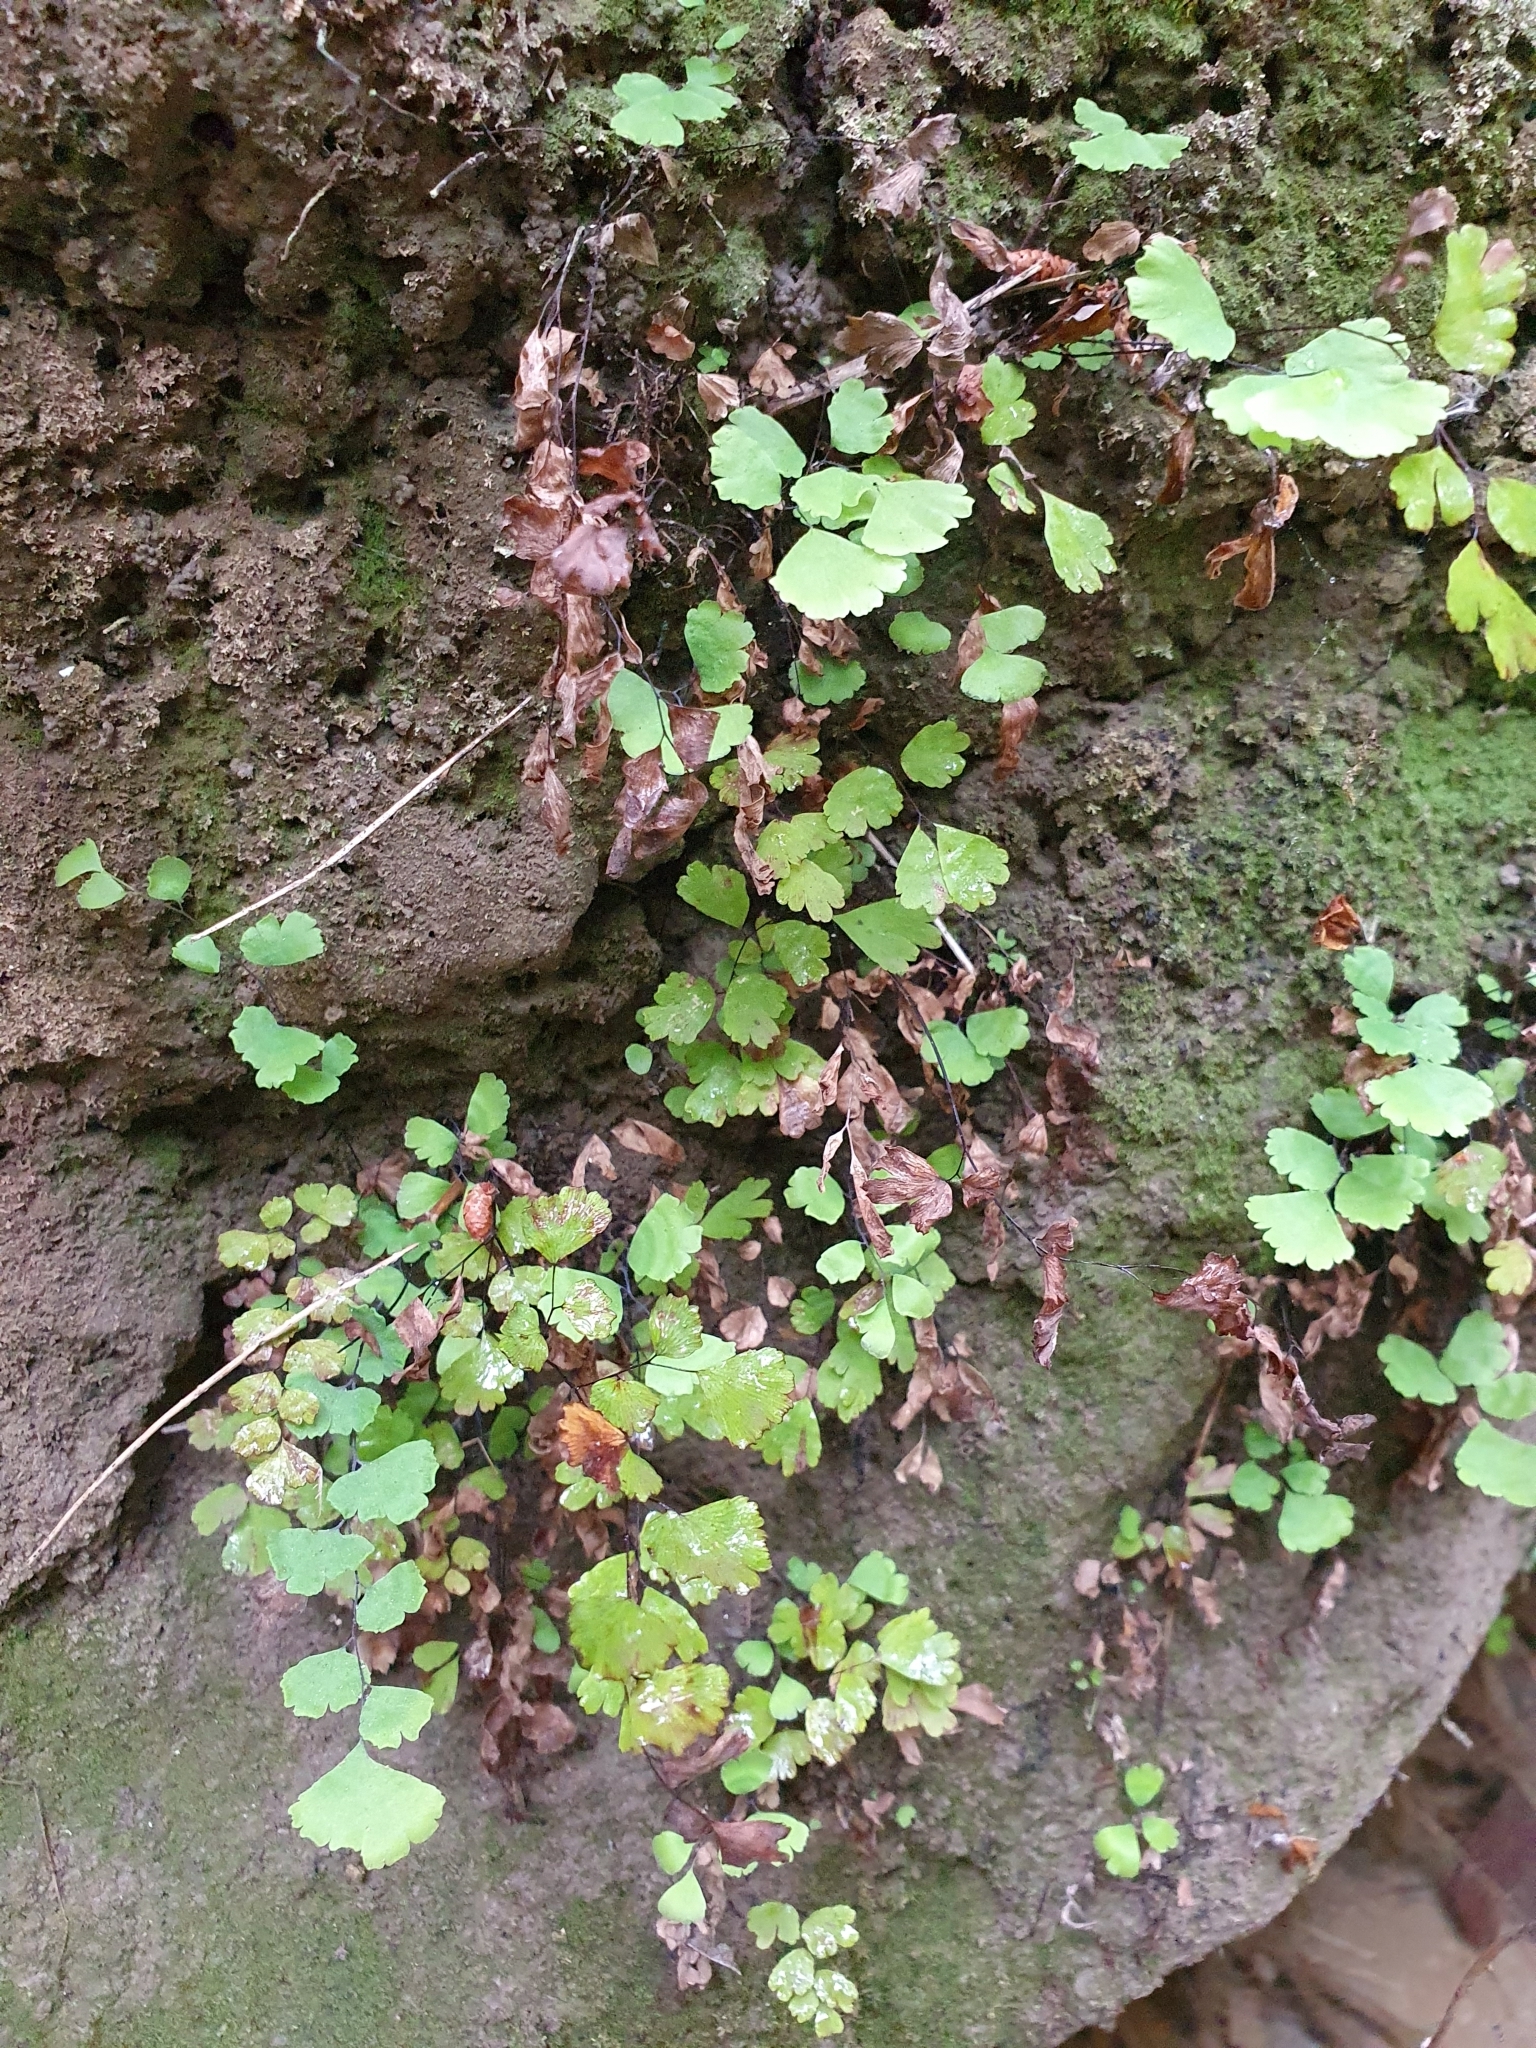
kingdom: Plantae
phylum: Tracheophyta
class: Polypodiopsida
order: Polypodiales
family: Pteridaceae
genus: Adiantum
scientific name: Adiantum capillus-veneris
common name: Maidenhair fern
